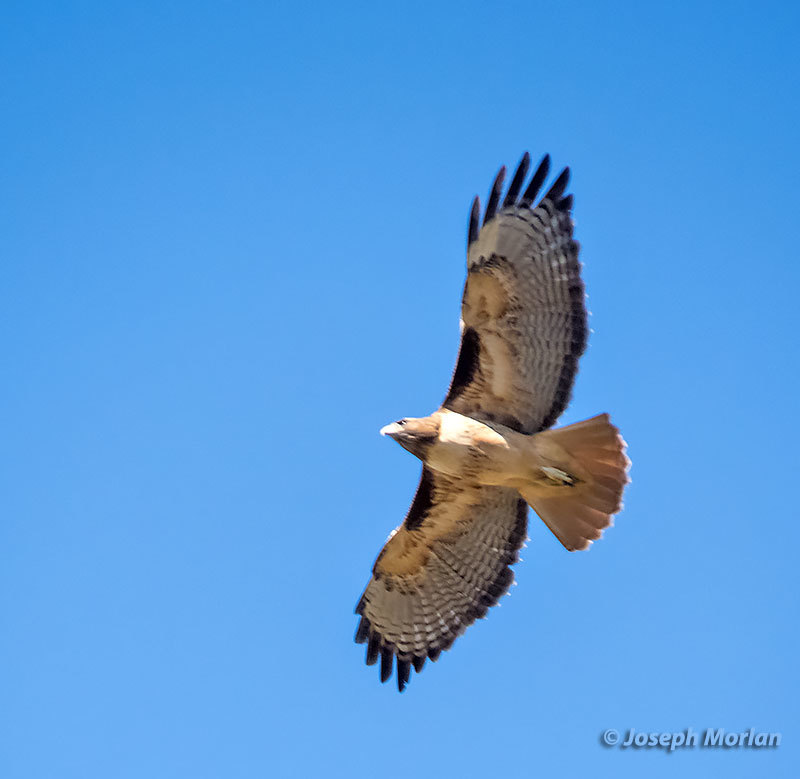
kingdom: Animalia
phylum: Chordata
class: Aves
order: Accipitriformes
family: Accipitridae
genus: Buteo
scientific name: Buteo jamaicensis
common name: Red-tailed hawk
